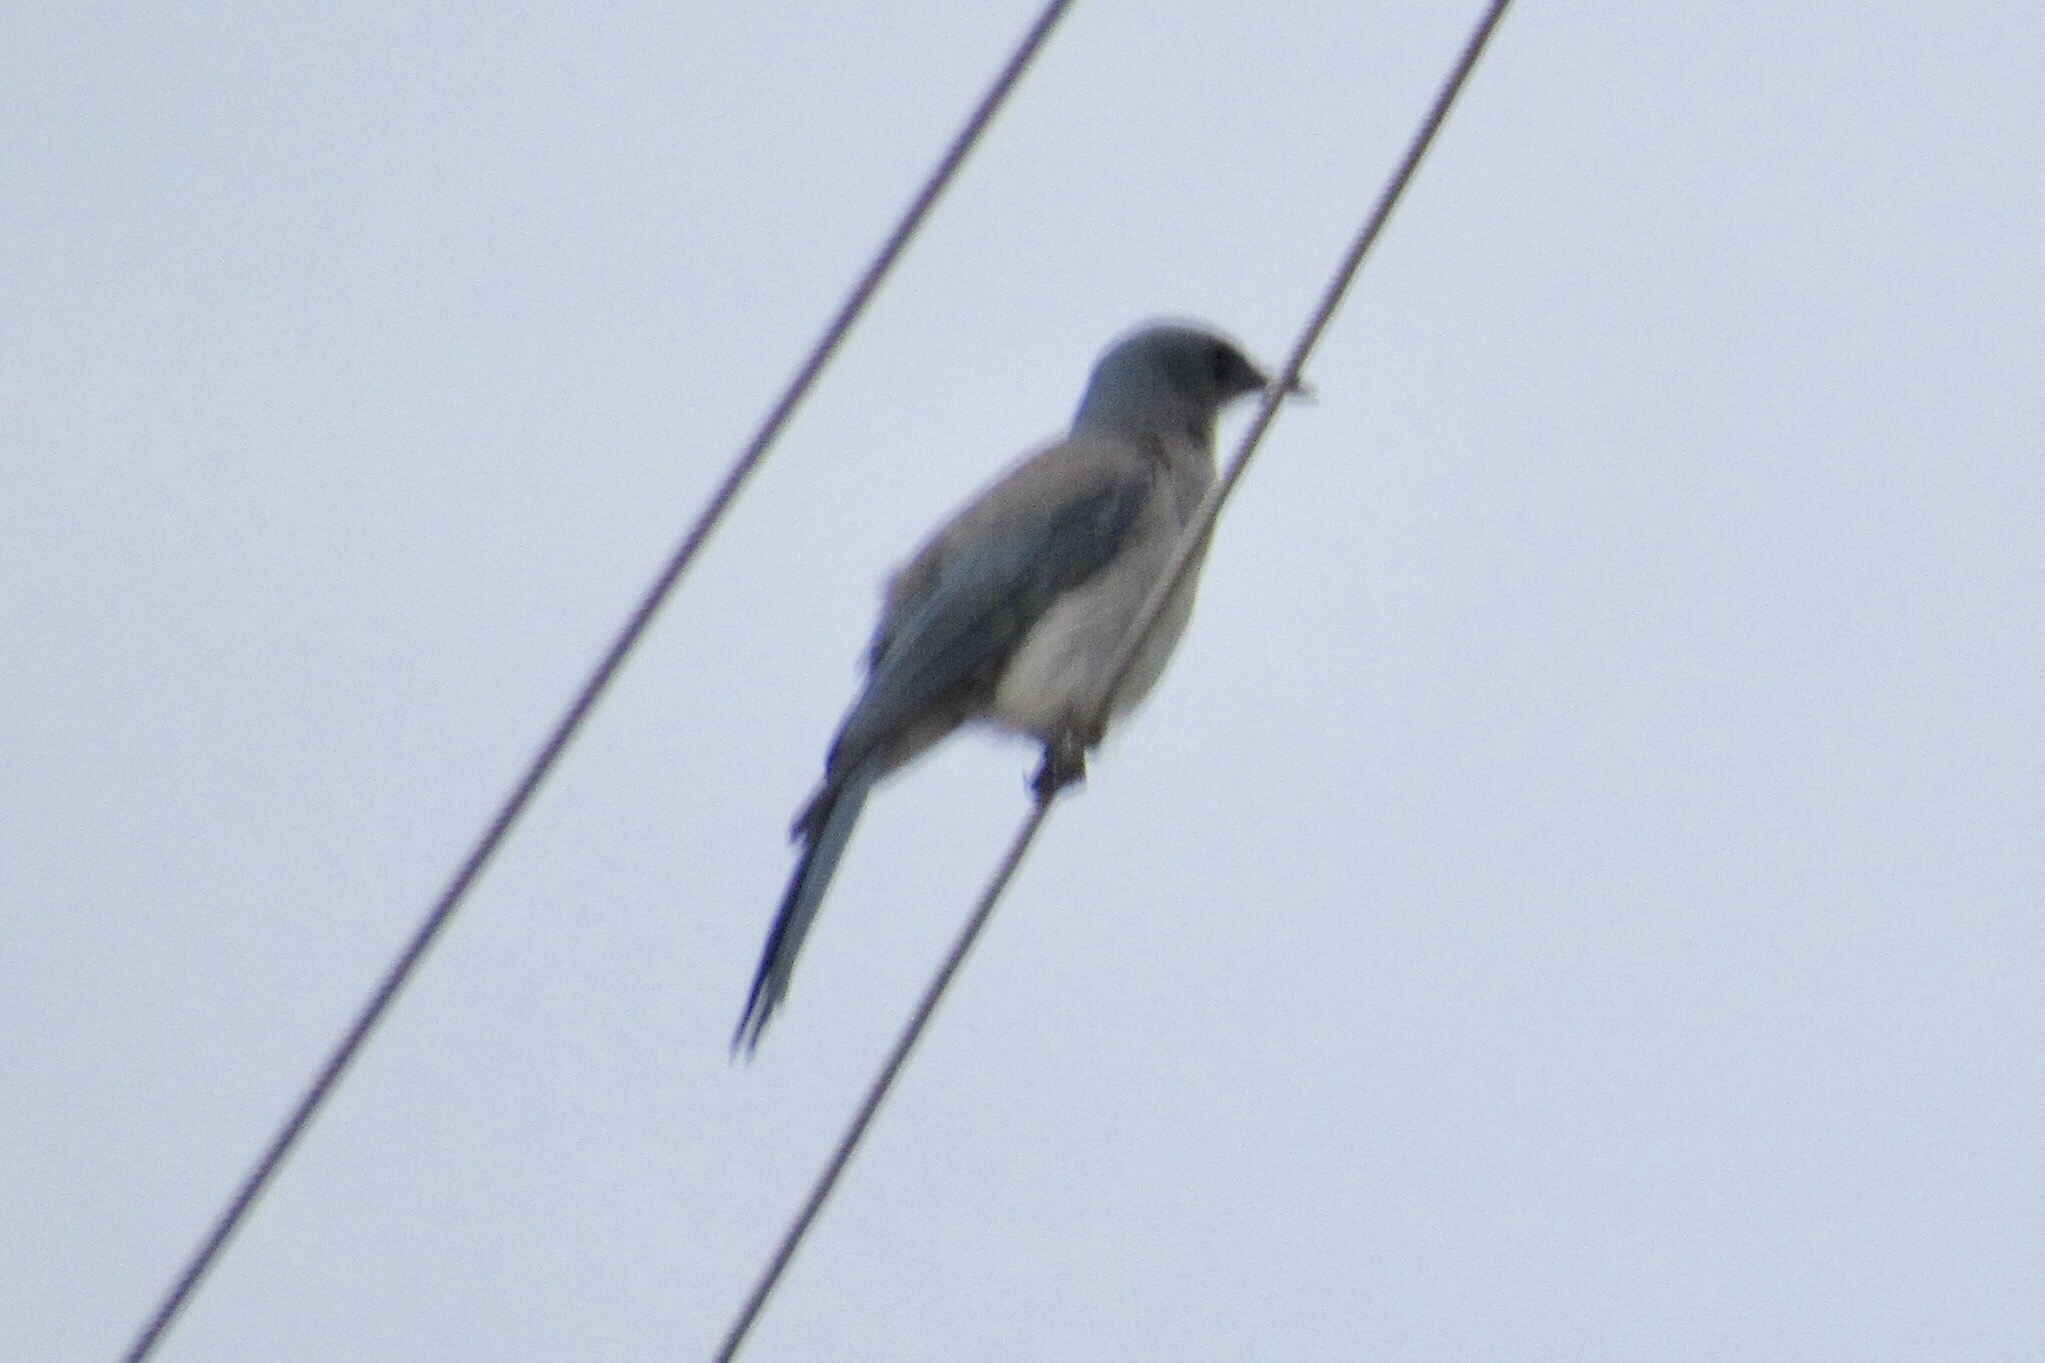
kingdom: Animalia
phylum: Chordata
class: Aves
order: Passeriformes
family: Corvidae
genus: Aphelocoma
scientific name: Aphelocoma wollweberi
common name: Mexican jay
